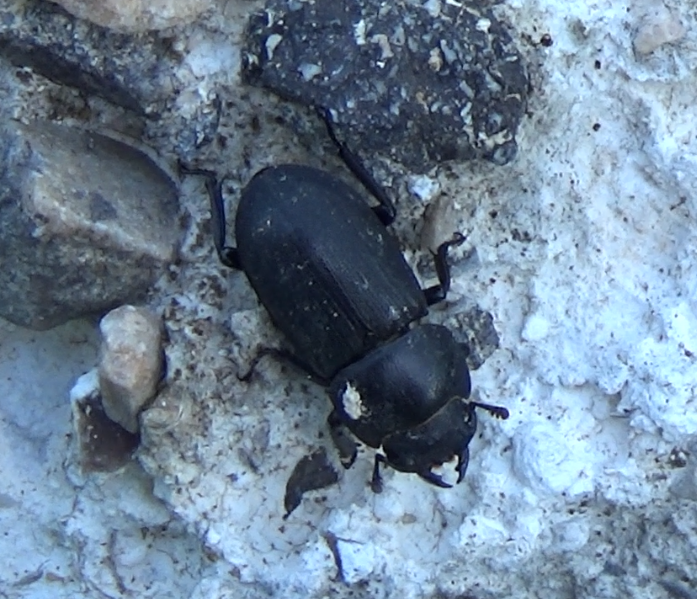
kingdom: Animalia
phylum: Arthropoda
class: Insecta
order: Coleoptera
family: Lucanidae
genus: Dorcus
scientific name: Dorcus parallelipipedus
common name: Lesser stag beetle
